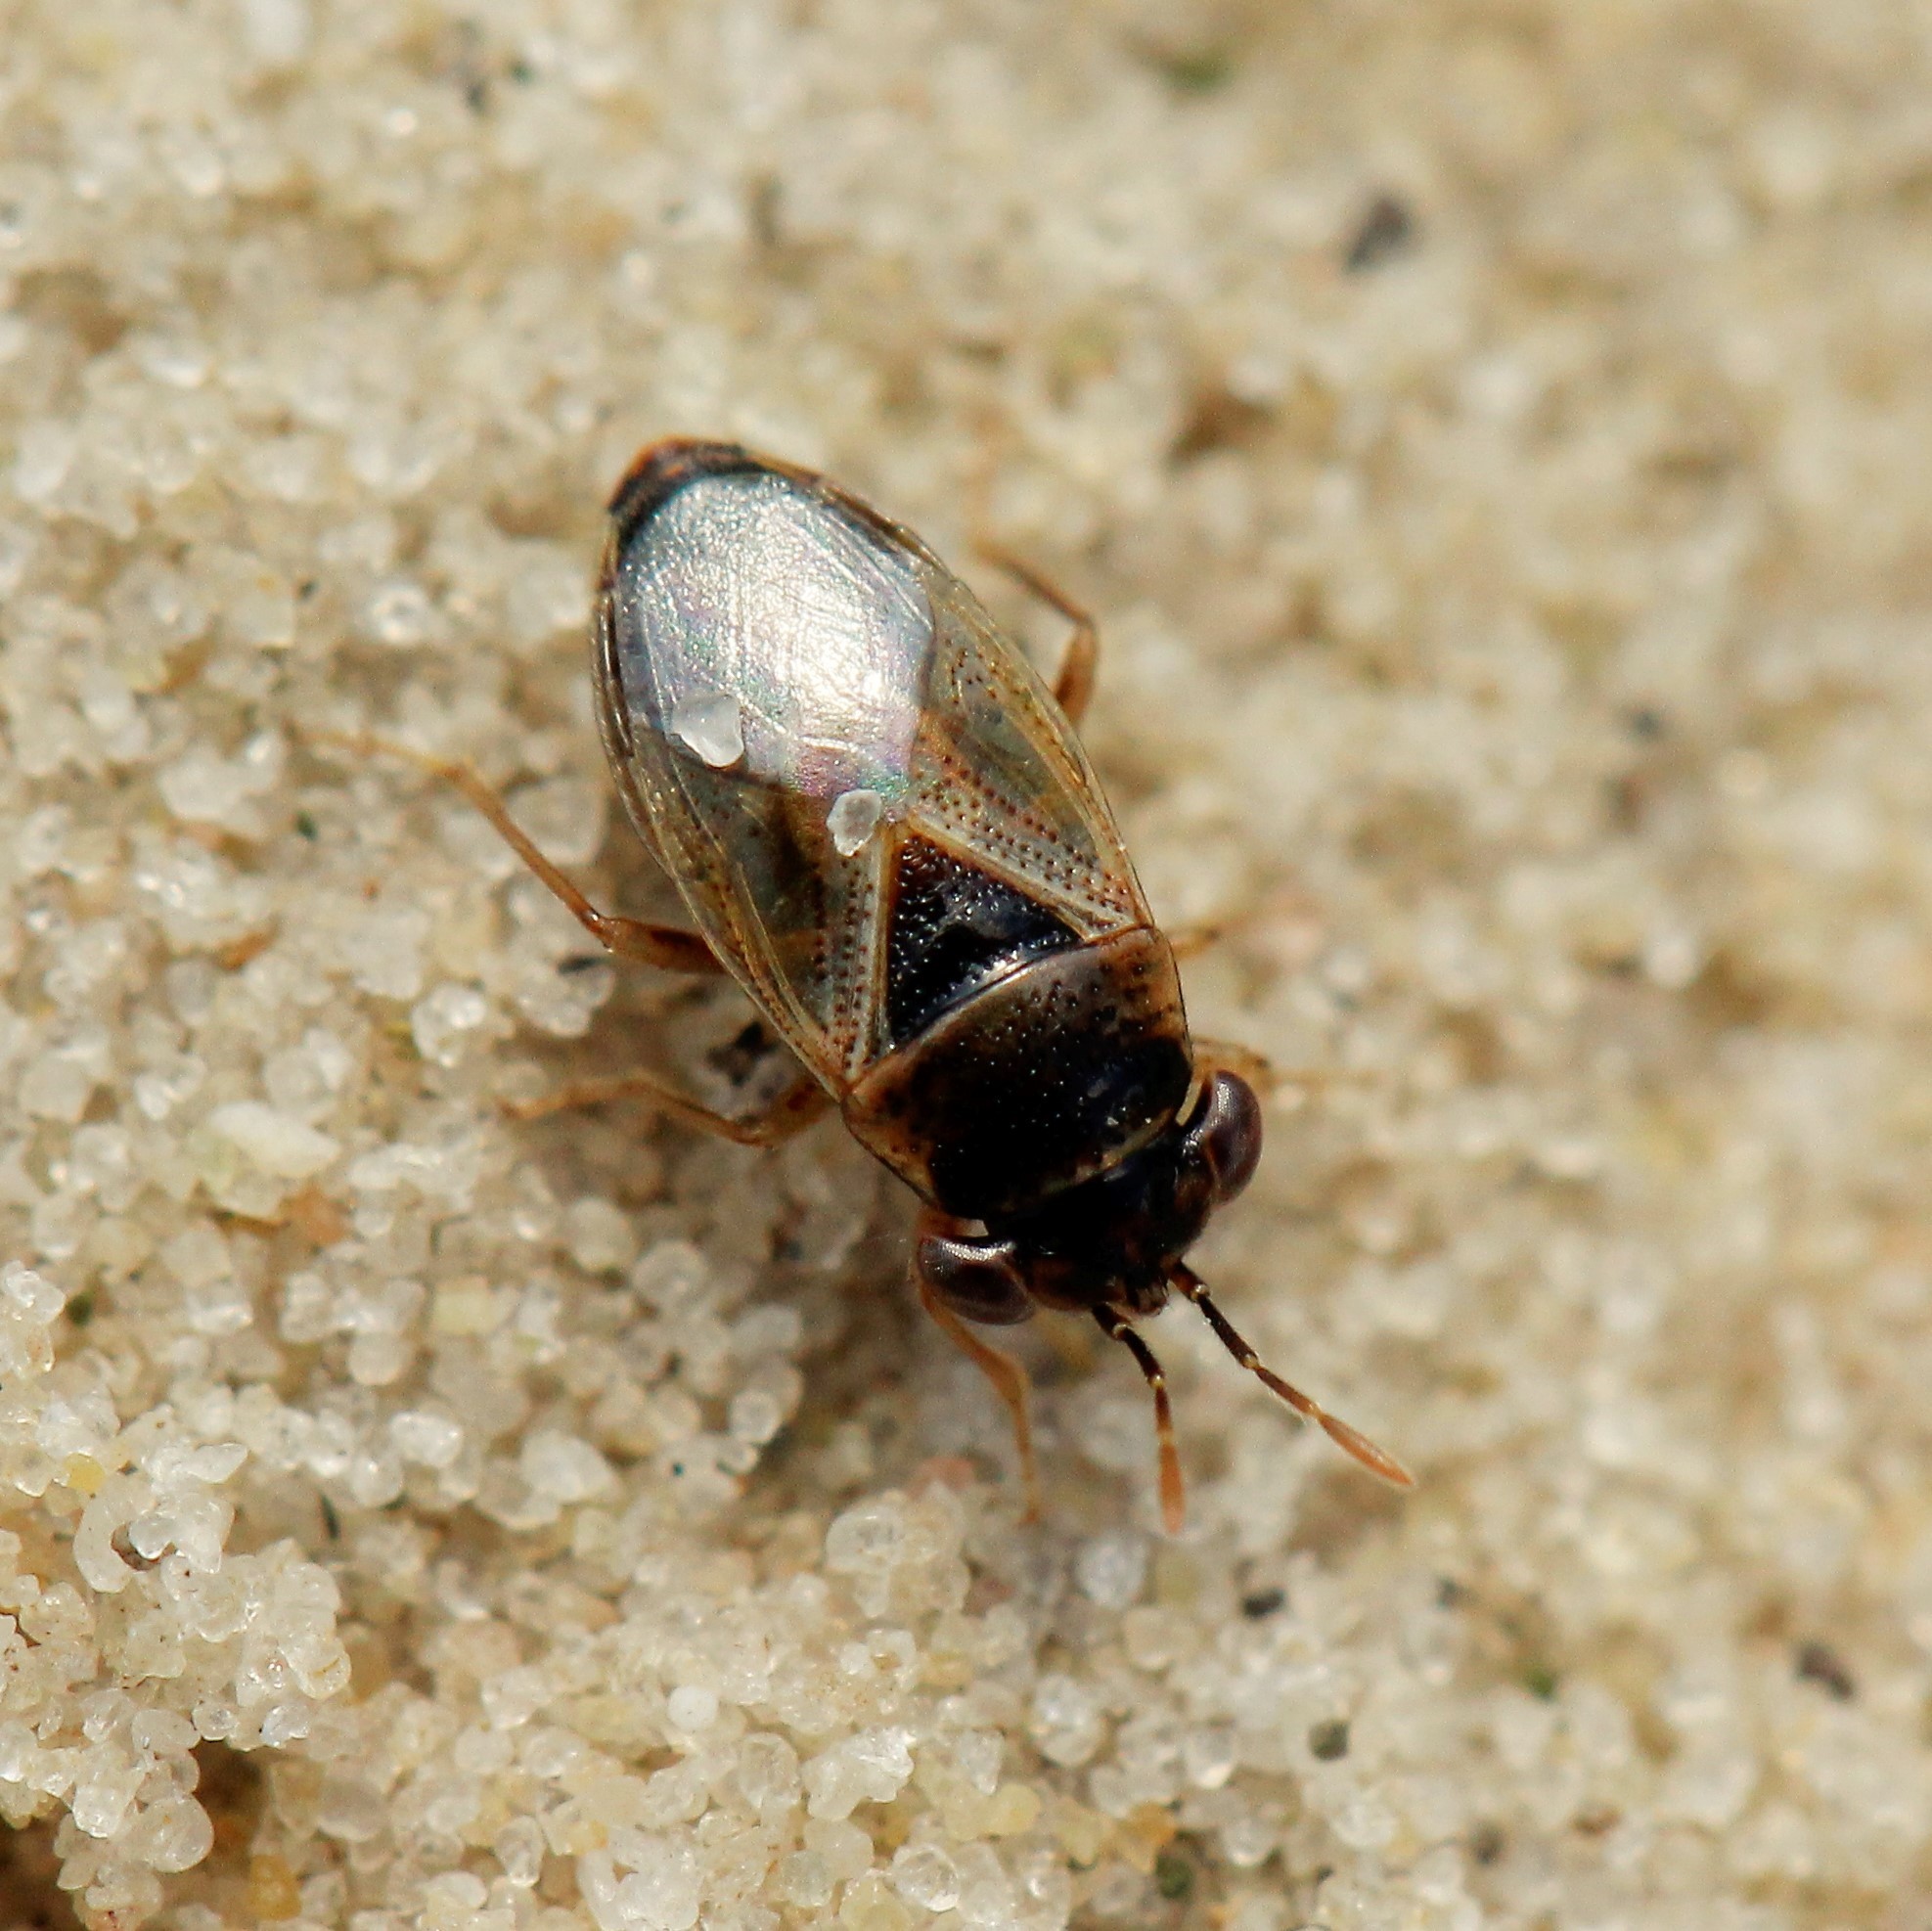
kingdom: Animalia
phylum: Arthropoda
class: Insecta
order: Hemiptera
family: Geocoridae
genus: Geocoris
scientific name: Geocoris arenarius
